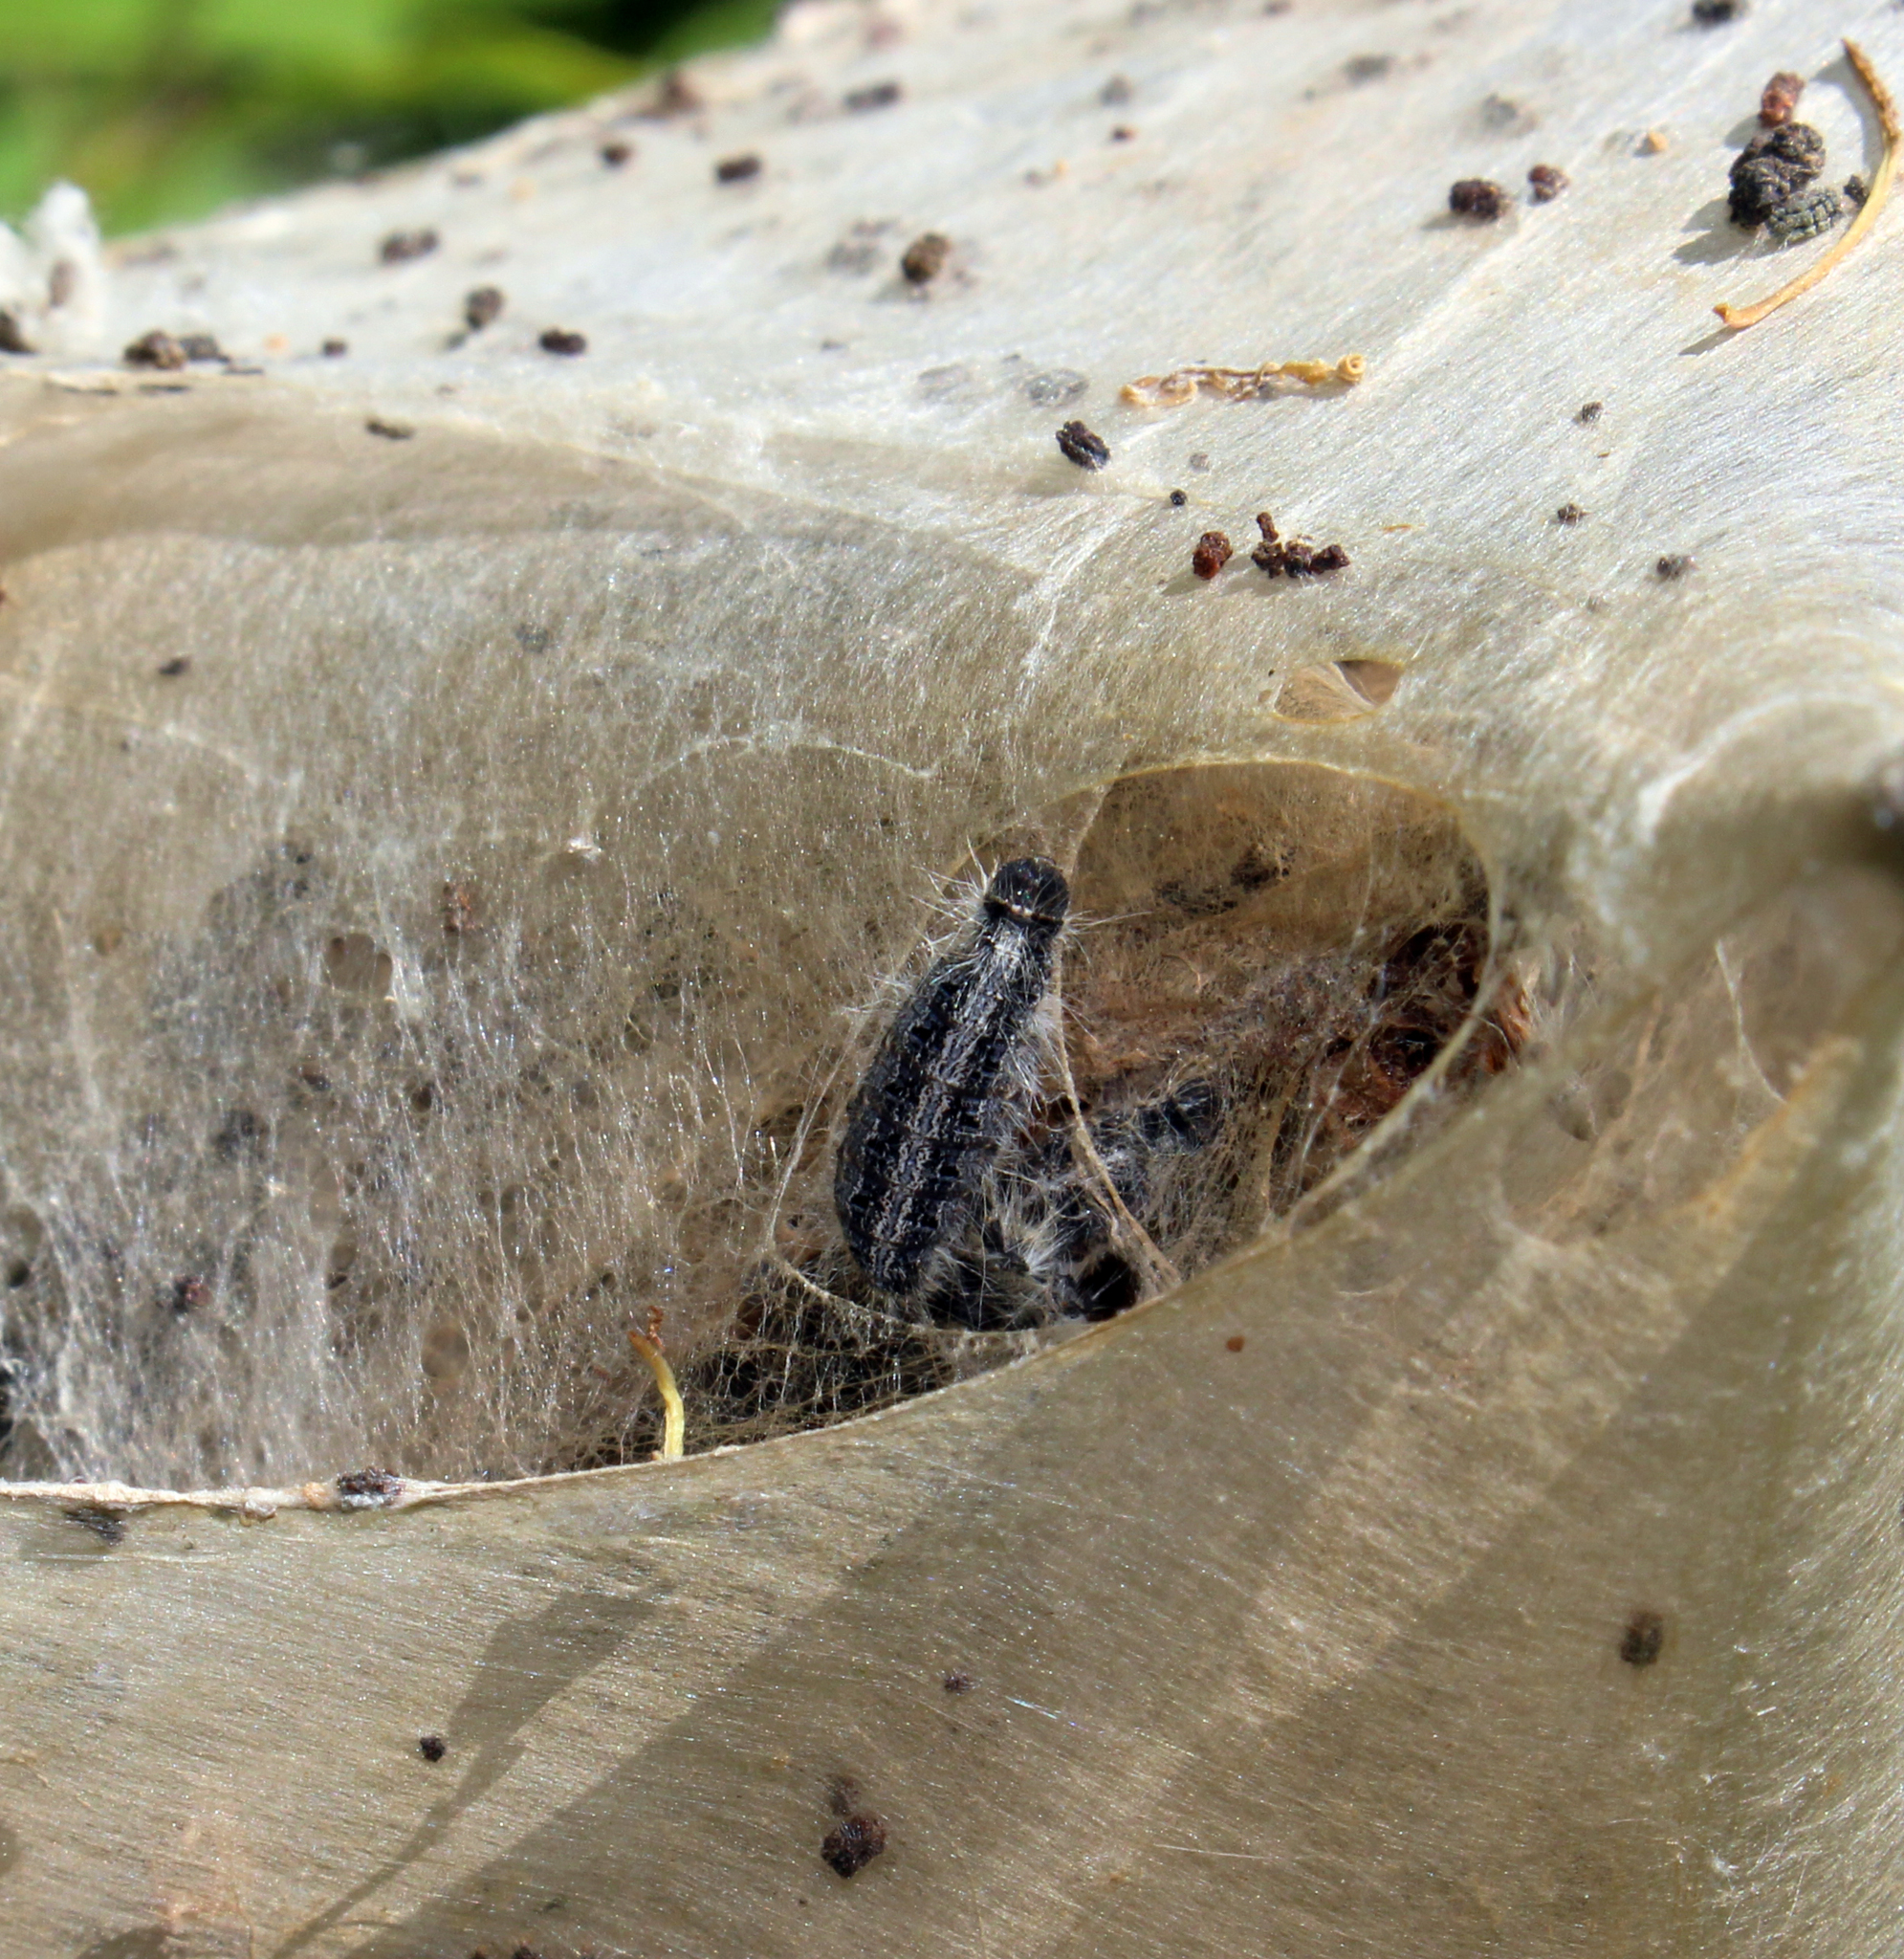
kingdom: Animalia
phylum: Arthropoda
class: Insecta
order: Lepidoptera
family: Lasiocampidae
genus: Malacosoma
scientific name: Malacosoma americana
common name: Eastern tent caterpillar moth
